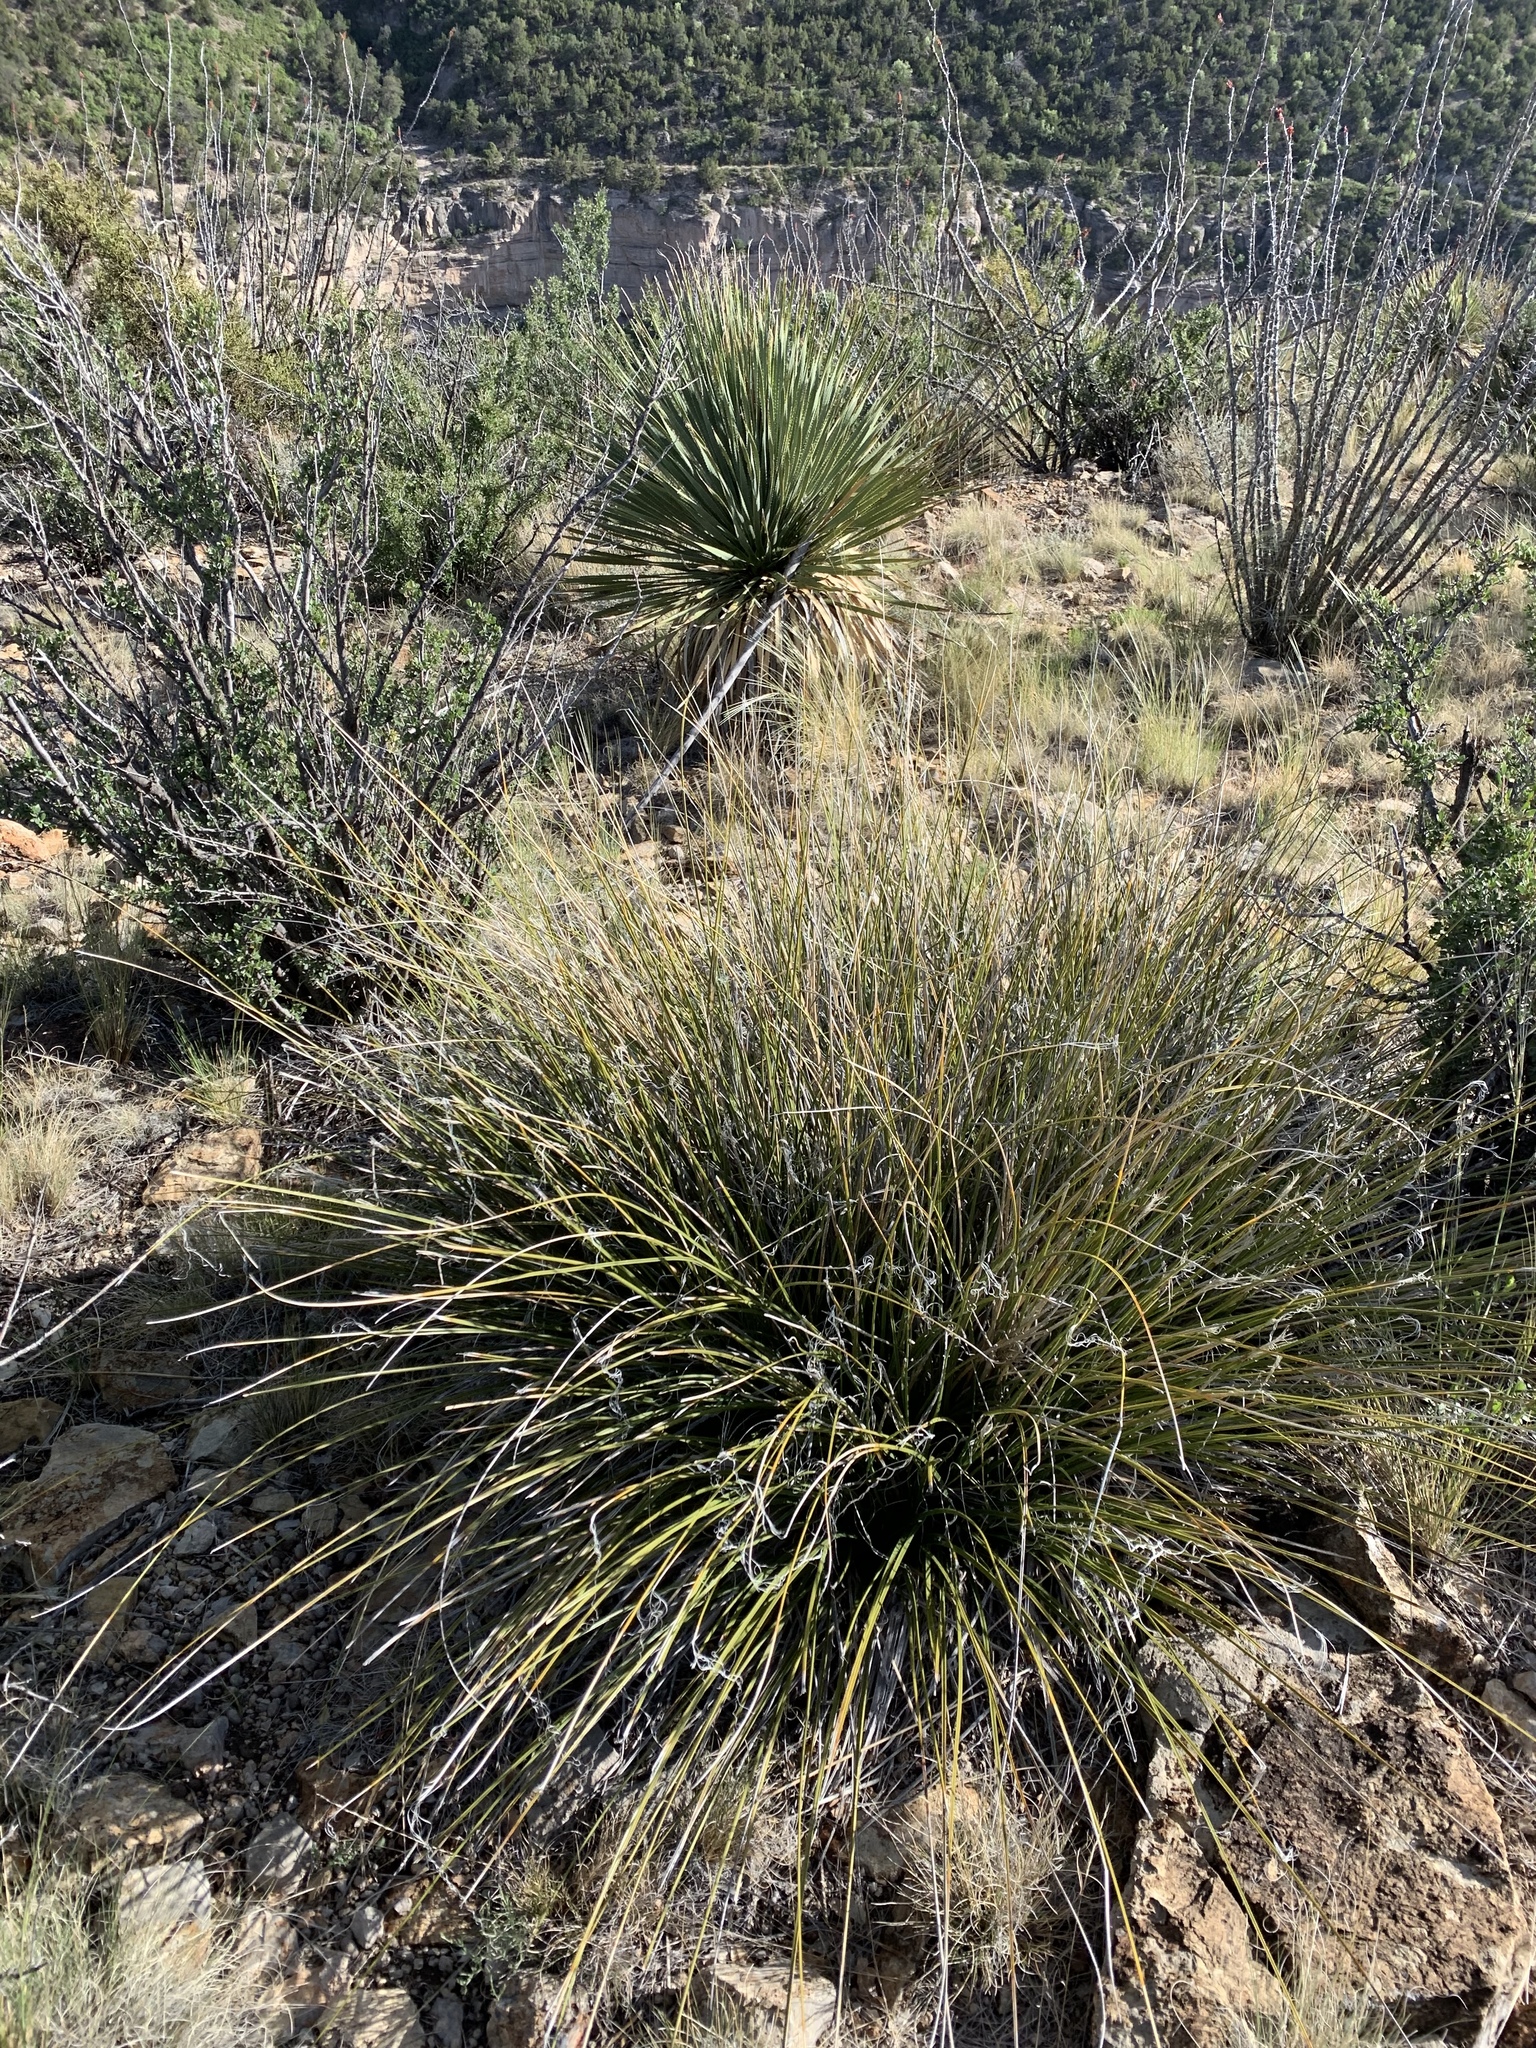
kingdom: Plantae
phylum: Tracheophyta
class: Liliopsida
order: Asparagales
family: Asparagaceae
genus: Nolina
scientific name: Nolina microcarpa
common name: Bear-grass
